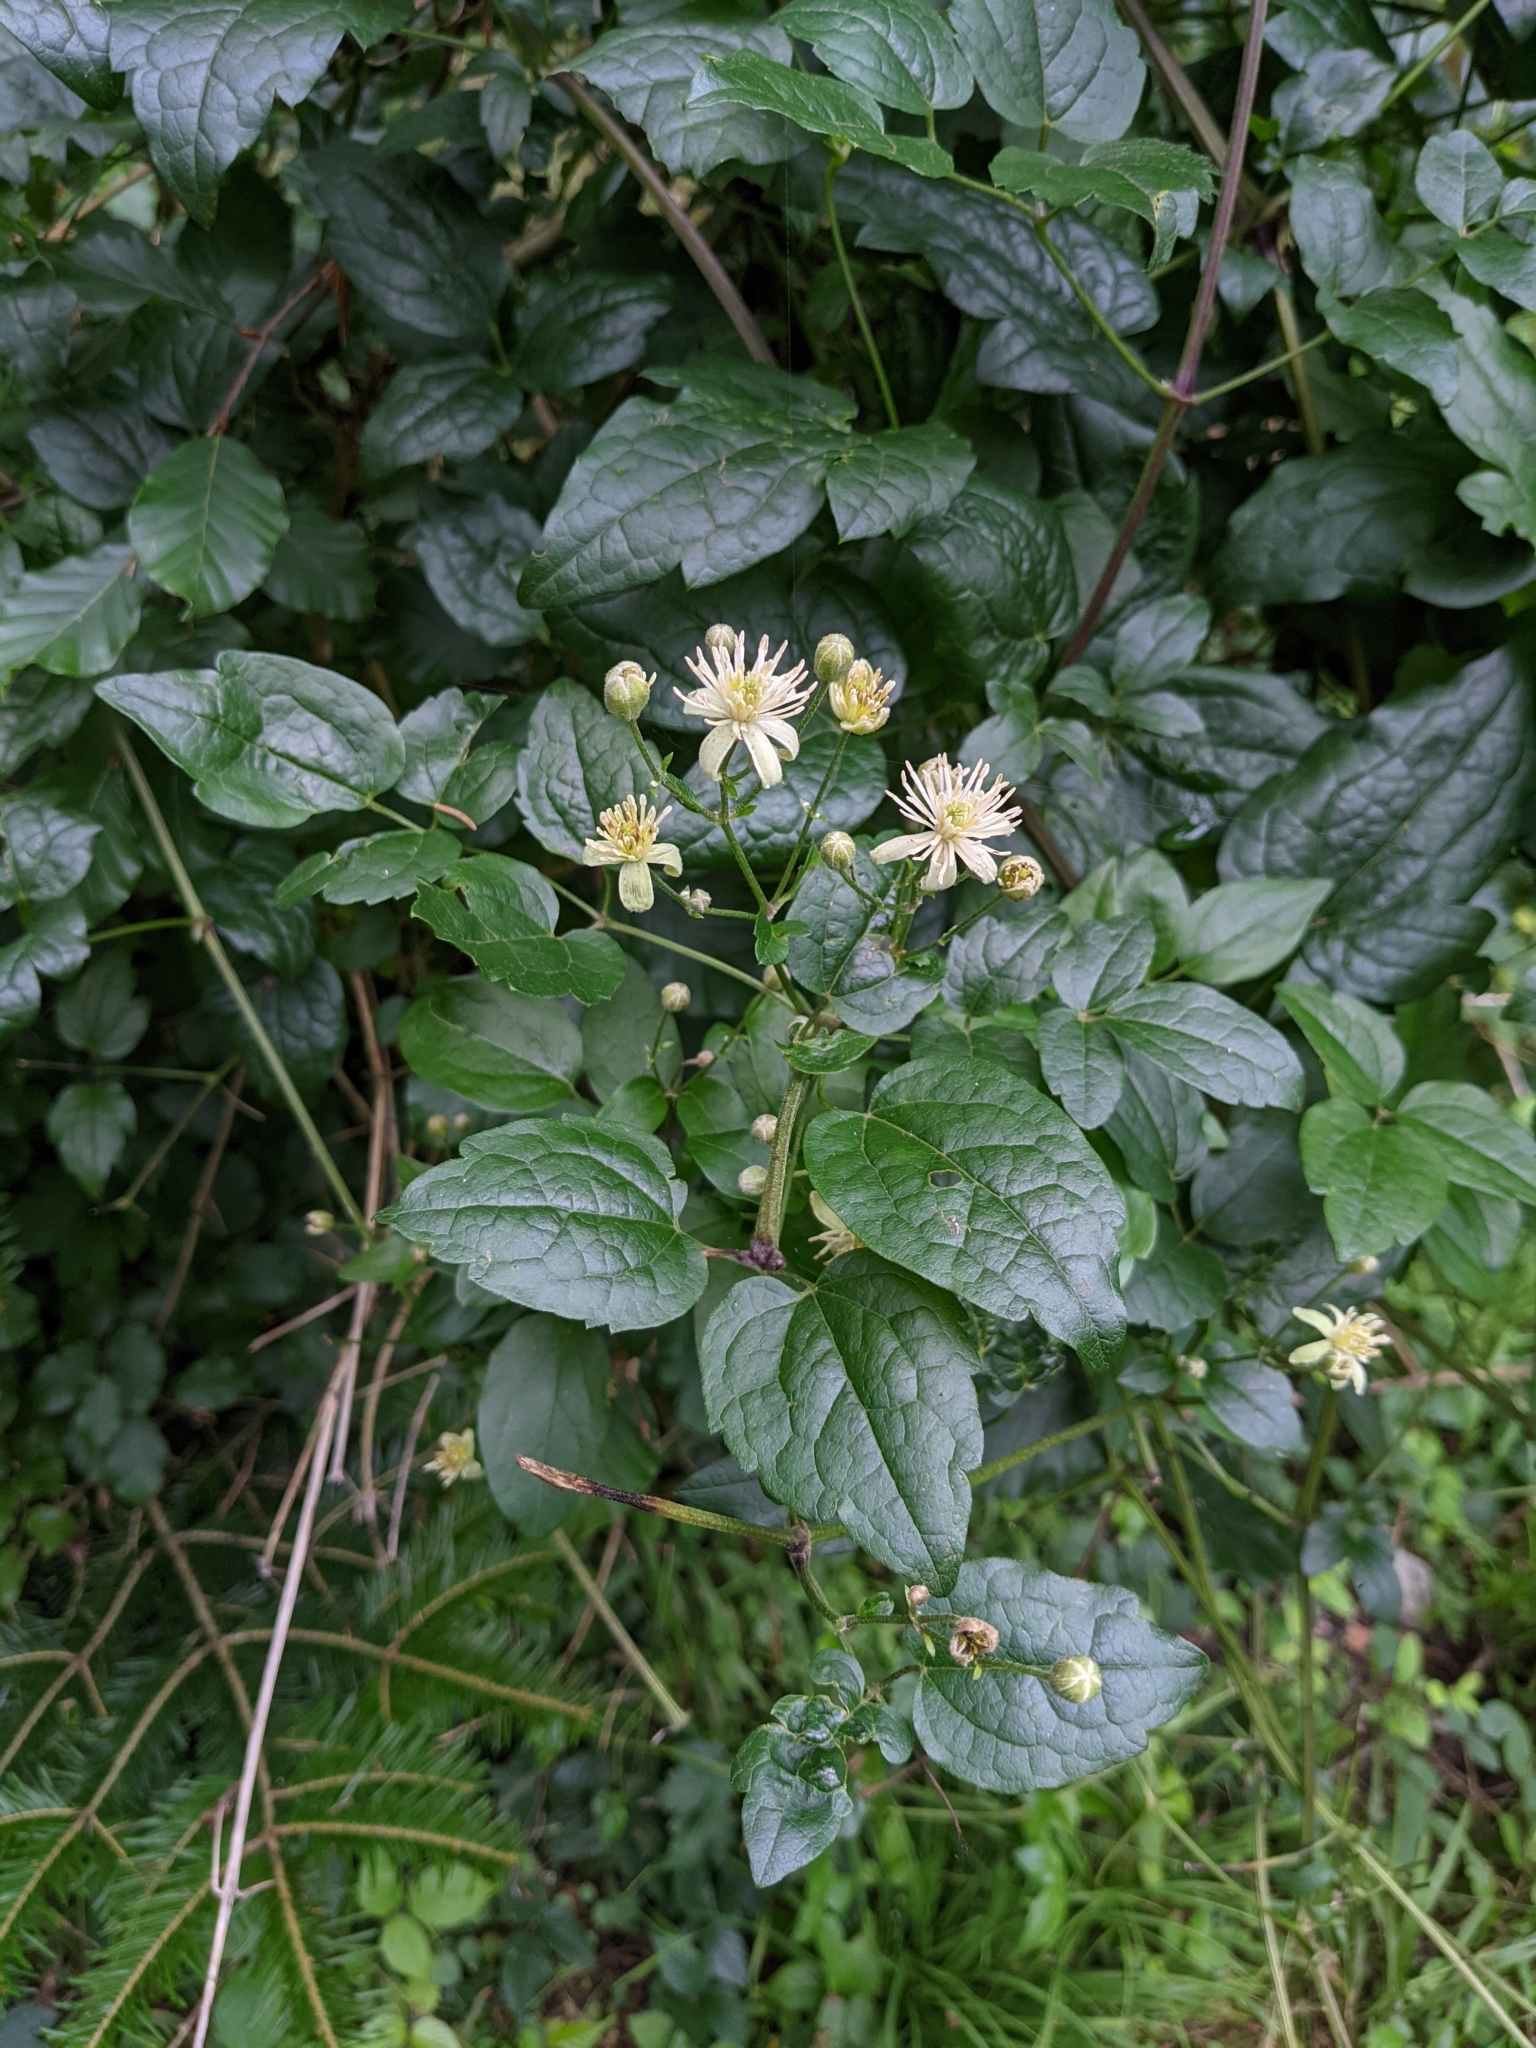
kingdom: Plantae
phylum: Tracheophyta
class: Magnoliopsida
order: Ranunculales
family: Ranunculaceae
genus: Clematis
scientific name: Clematis vitalba
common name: Evergreen clematis
